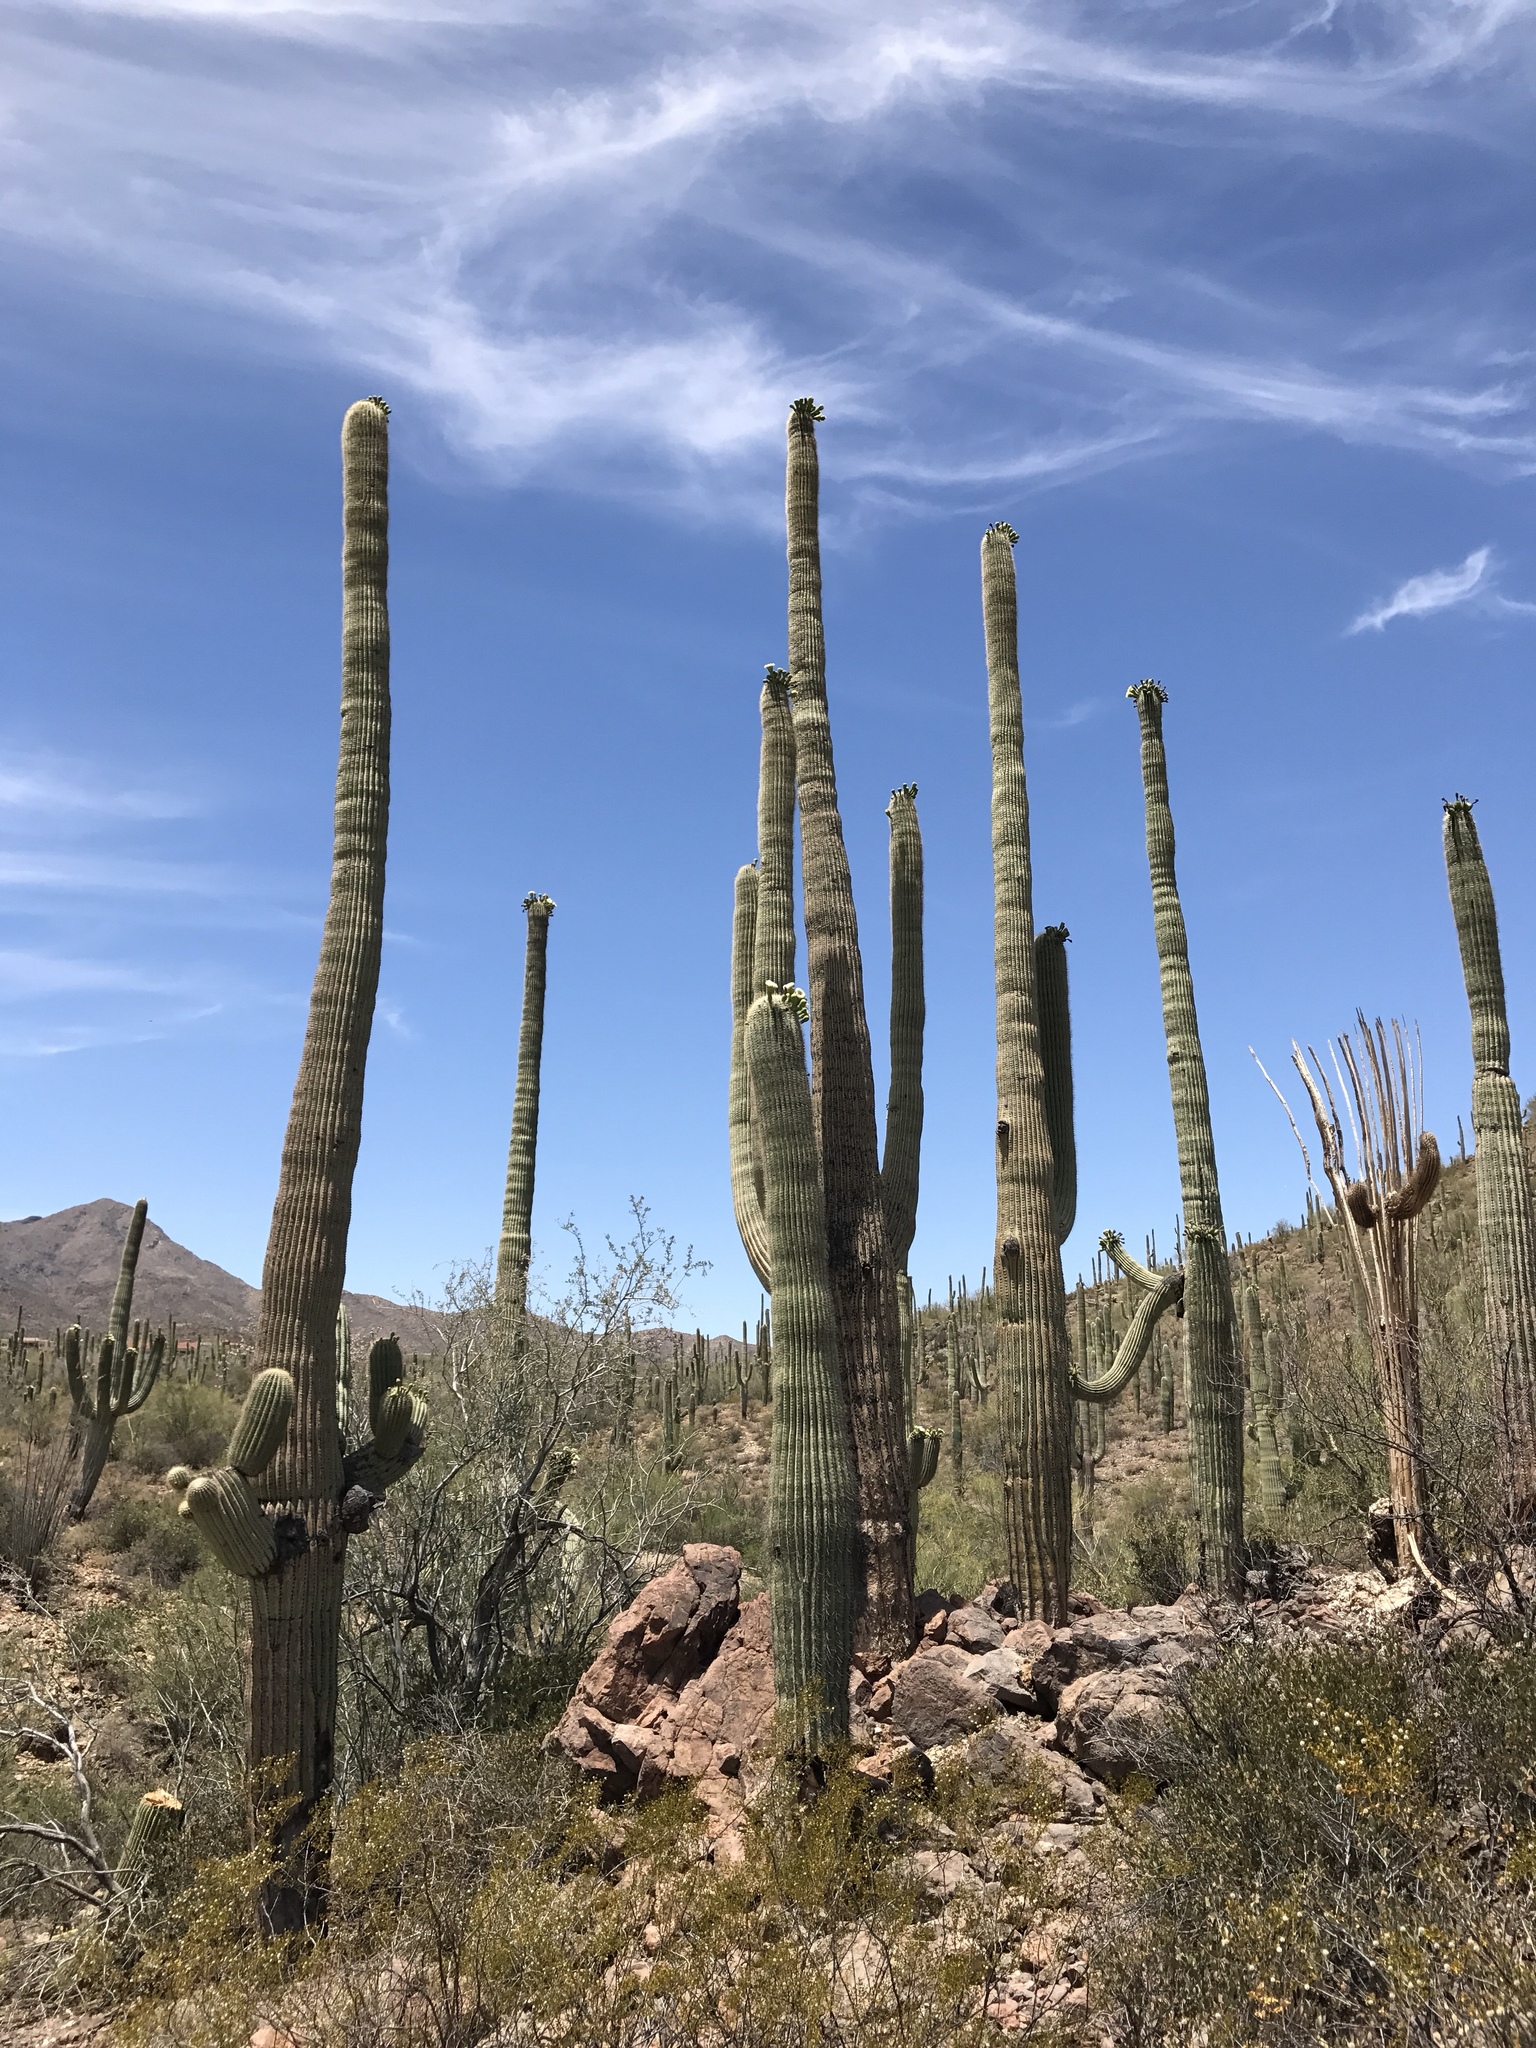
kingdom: Plantae
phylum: Tracheophyta
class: Magnoliopsida
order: Caryophyllales
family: Cactaceae
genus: Carnegiea
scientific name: Carnegiea gigantea
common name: Saguaro
